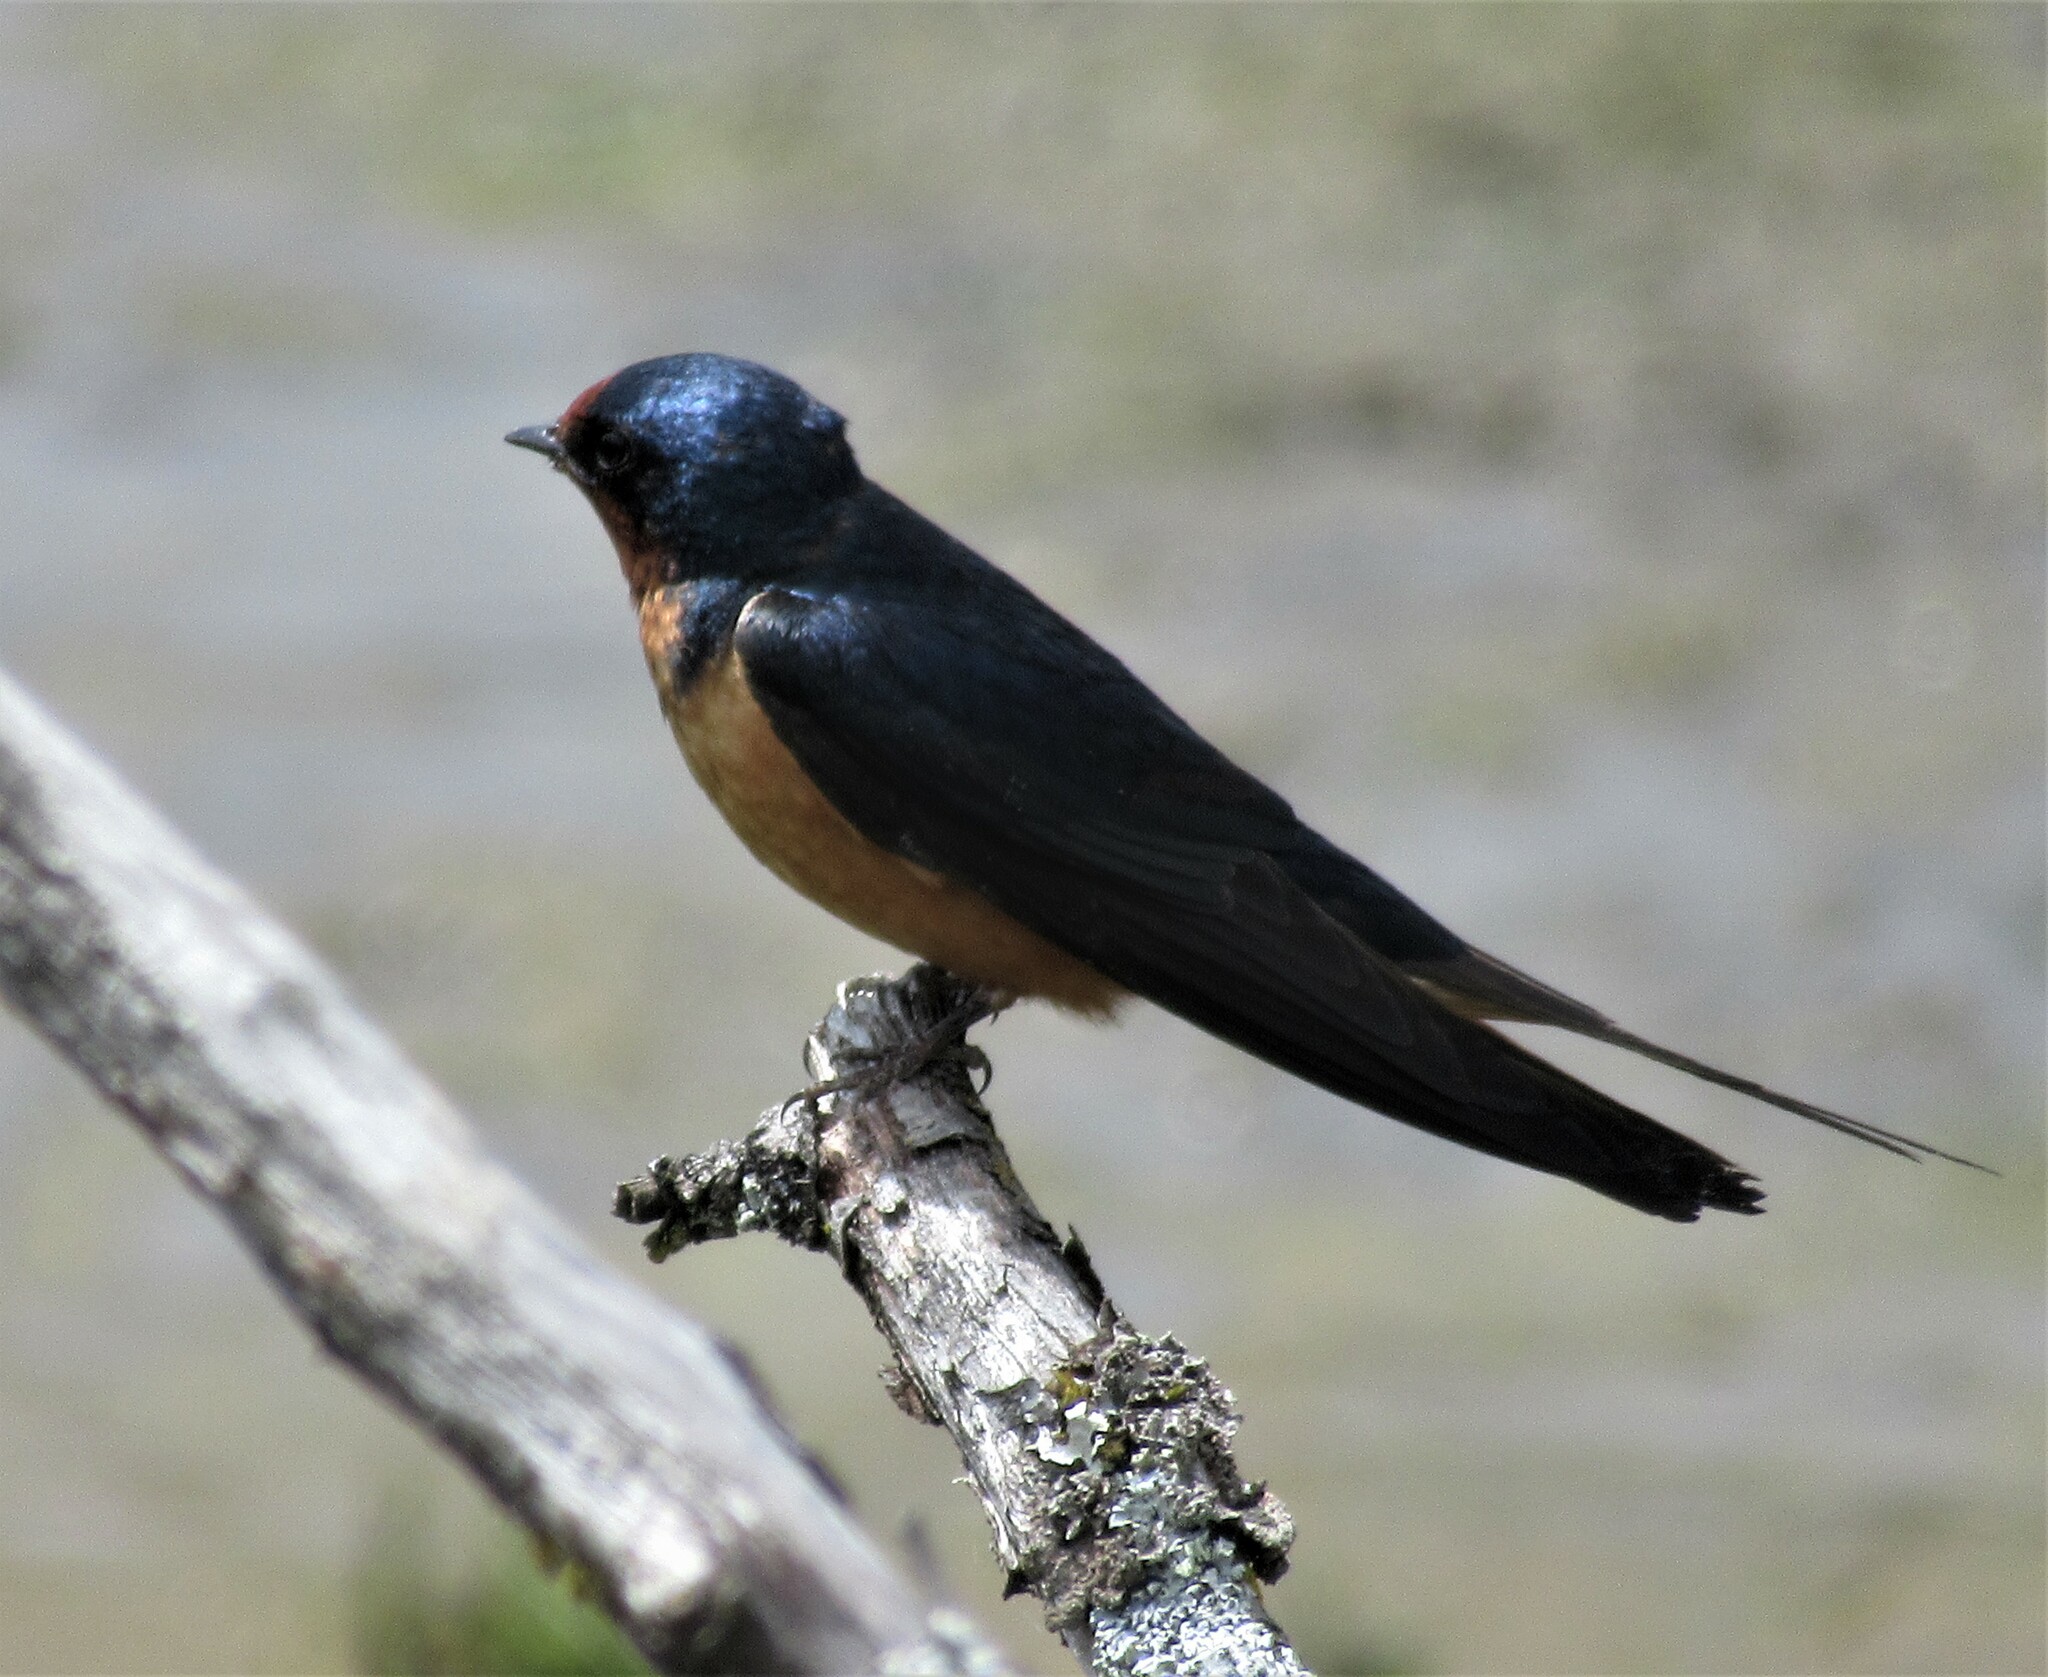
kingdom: Animalia
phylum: Chordata
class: Aves
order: Passeriformes
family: Hirundinidae
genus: Hirundo
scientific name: Hirundo rustica
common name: Barn swallow
